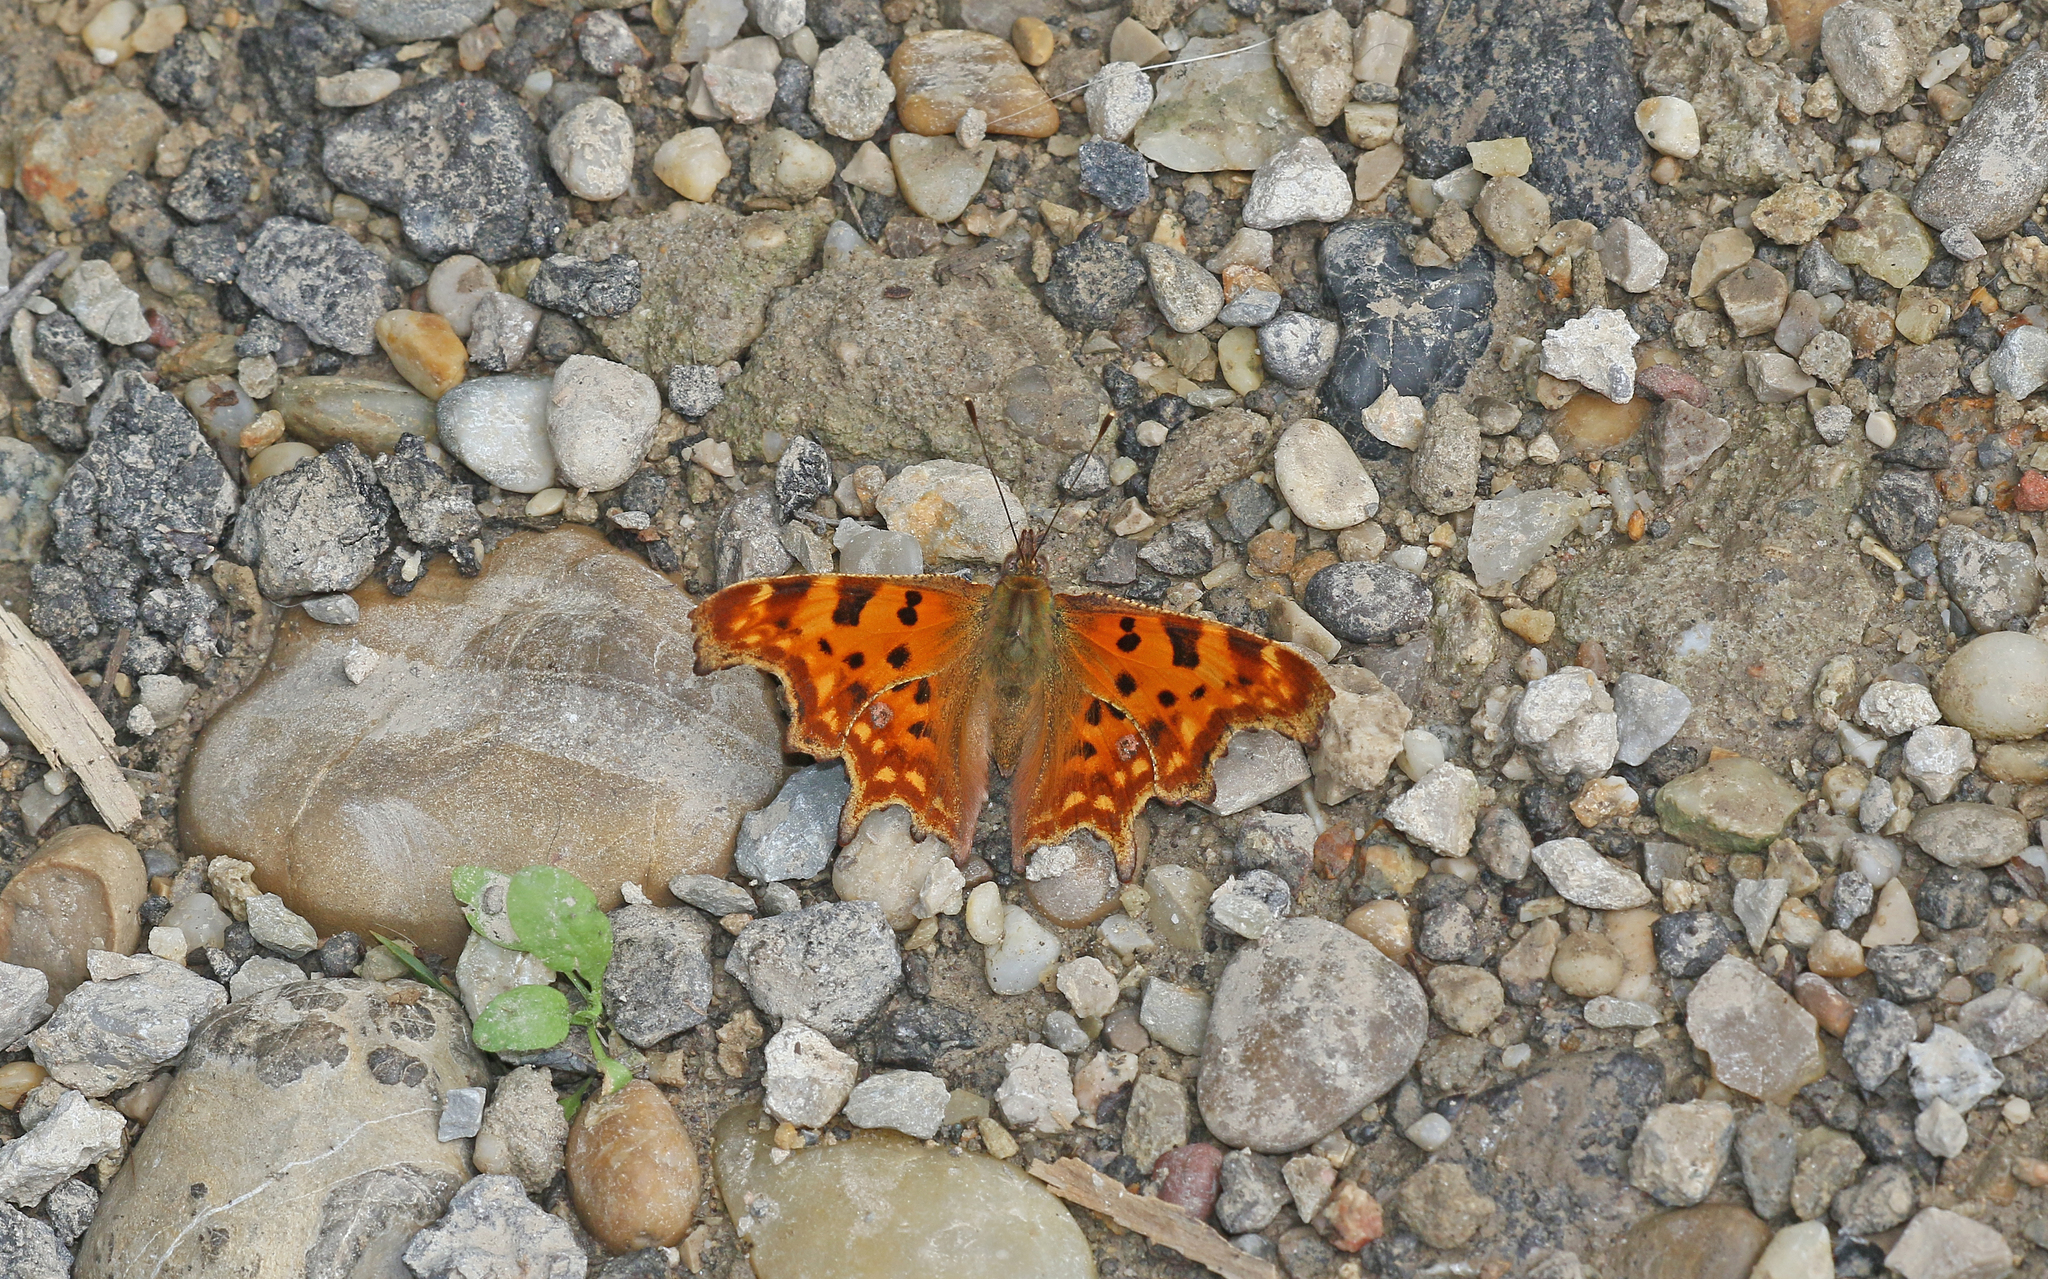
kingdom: Animalia
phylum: Arthropoda
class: Insecta
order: Lepidoptera
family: Nymphalidae
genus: Polygonia
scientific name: Polygonia c-album
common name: Comma
